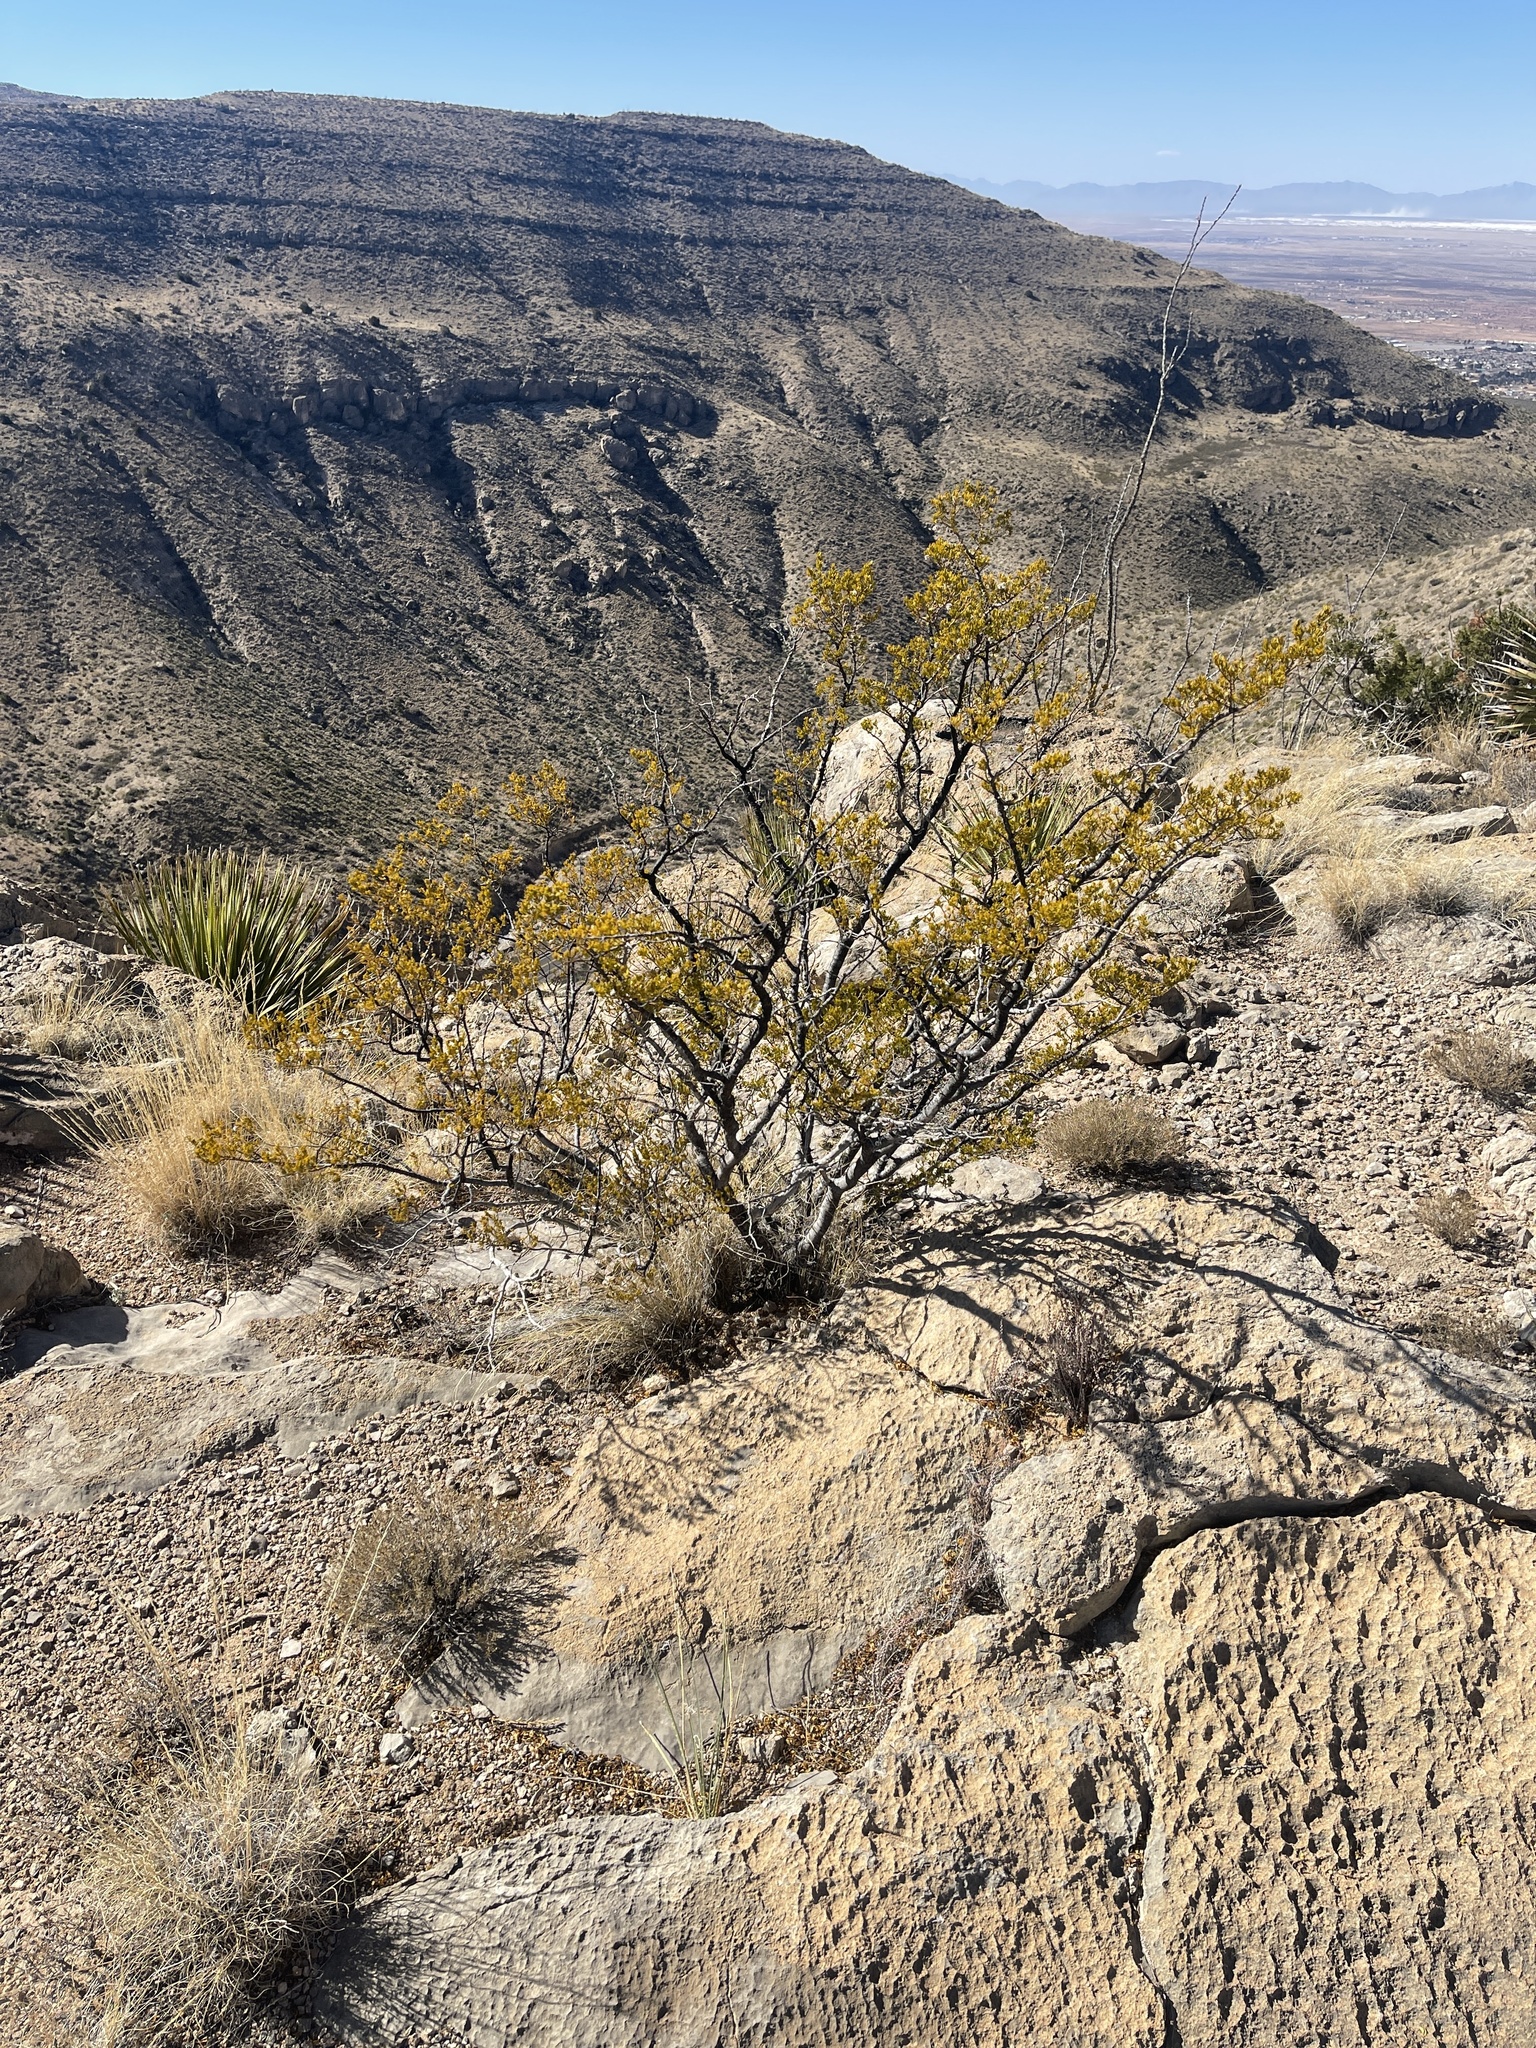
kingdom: Plantae
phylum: Tracheophyta
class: Magnoliopsida
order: Zygophyllales
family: Zygophyllaceae
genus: Larrea
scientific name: Larrea tridentata
